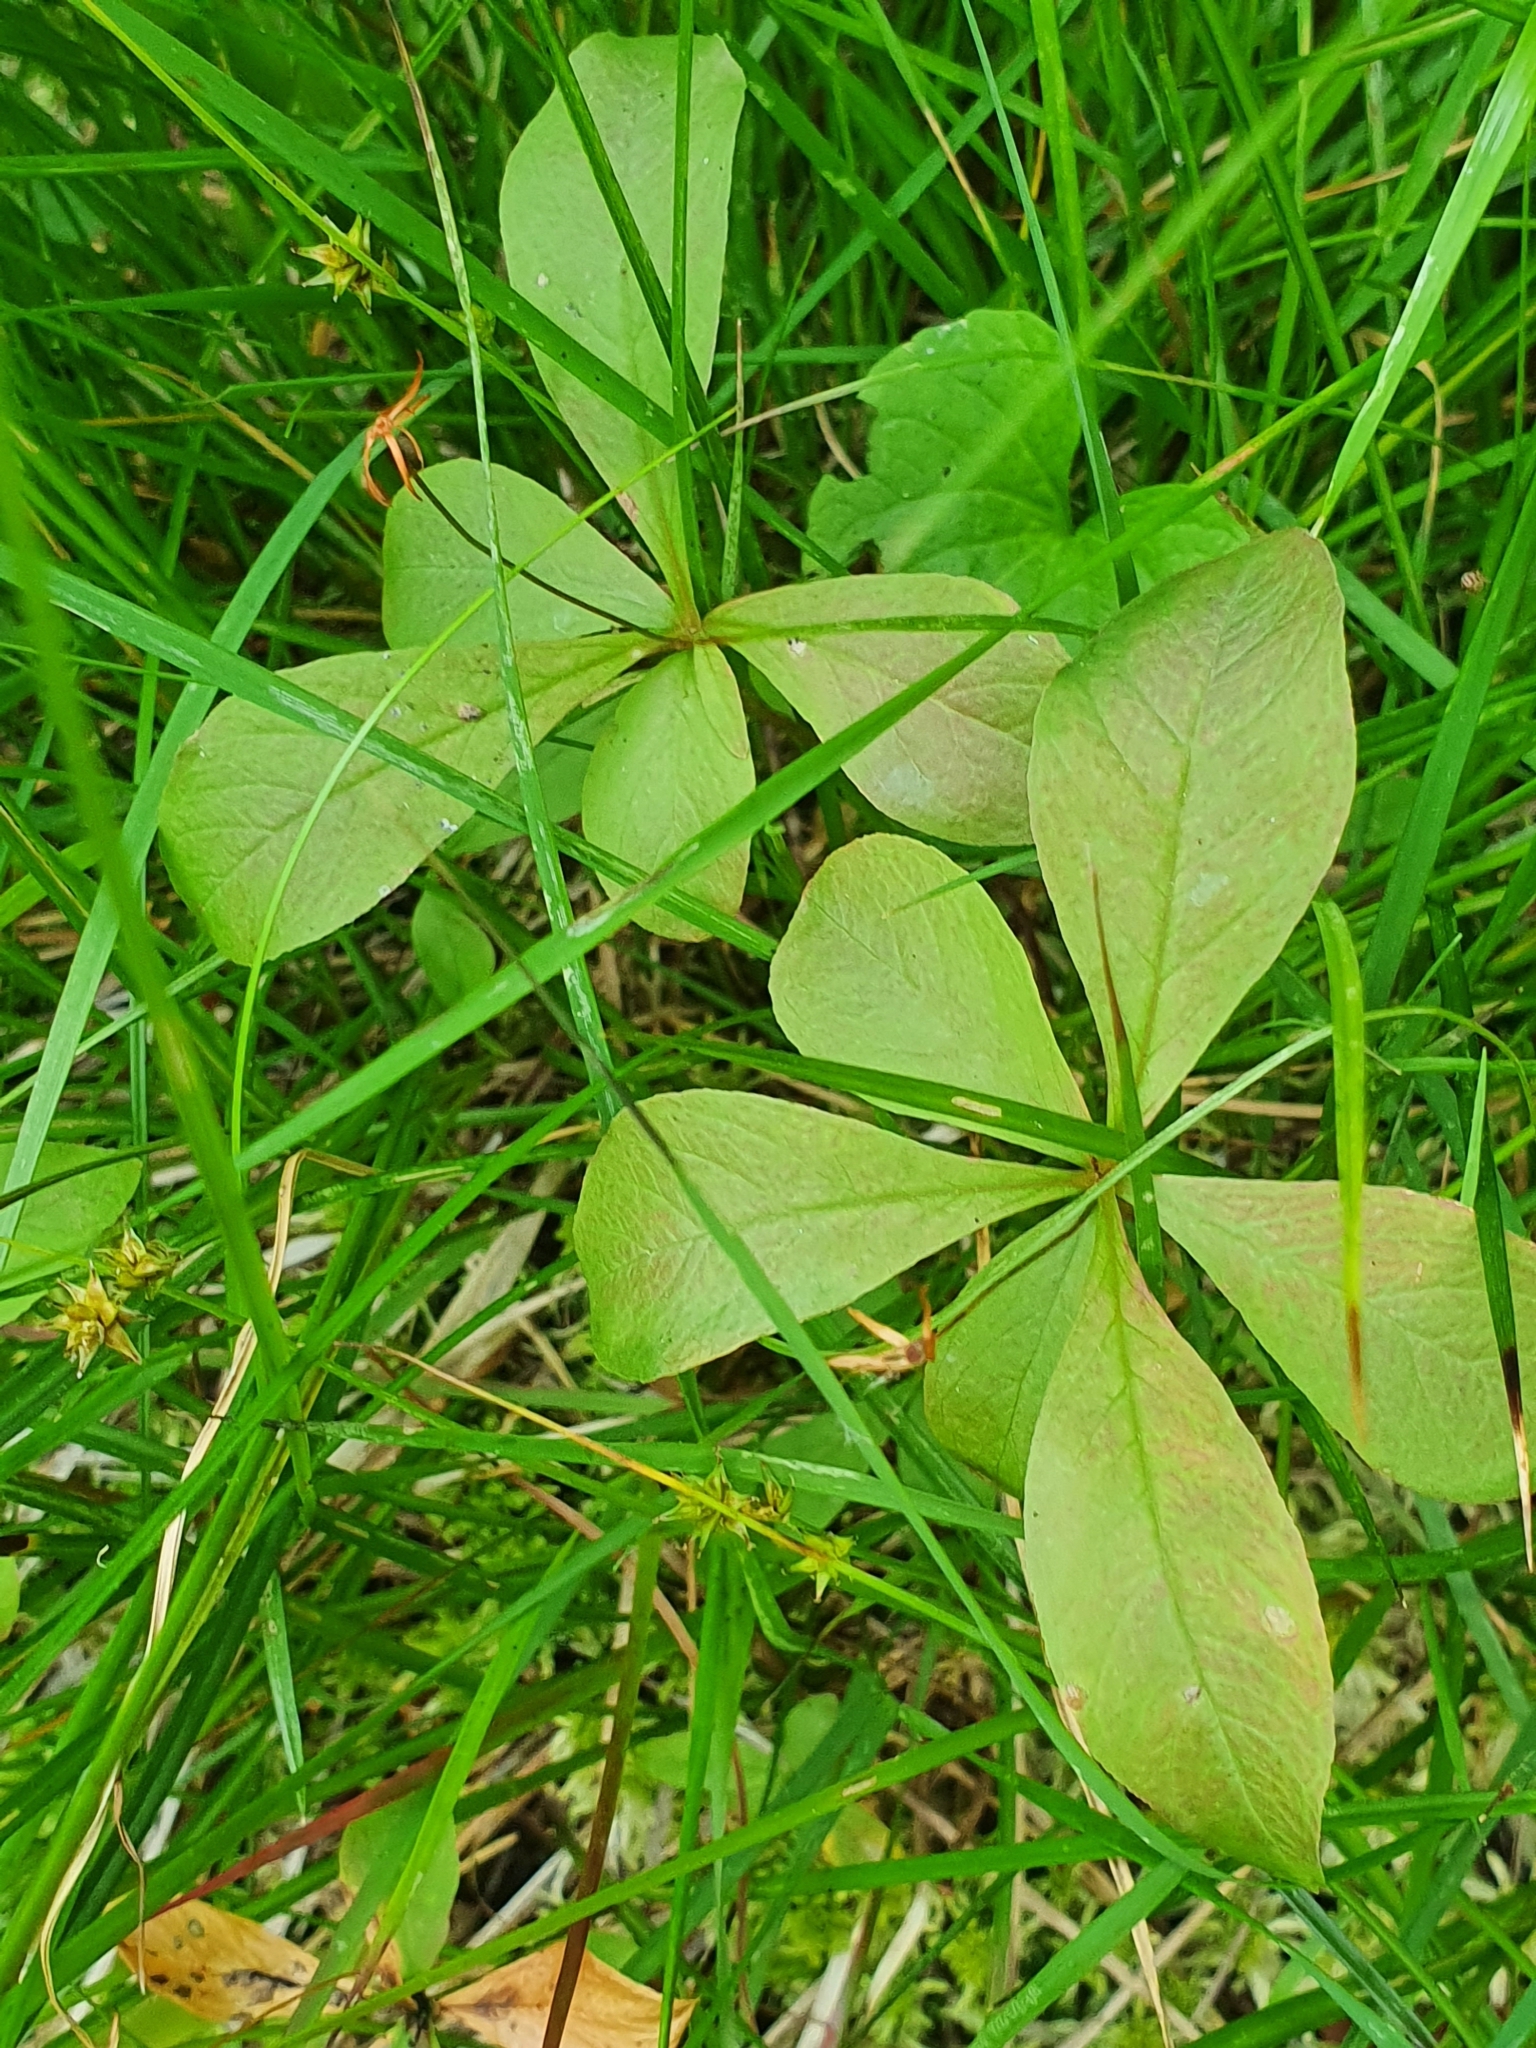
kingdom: Plantae
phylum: Tracheophyta
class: Magnoliopsida
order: Ericales
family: Primulaceae
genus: Lysimachia
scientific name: Lysimachia europaea
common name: Arctic starflower
